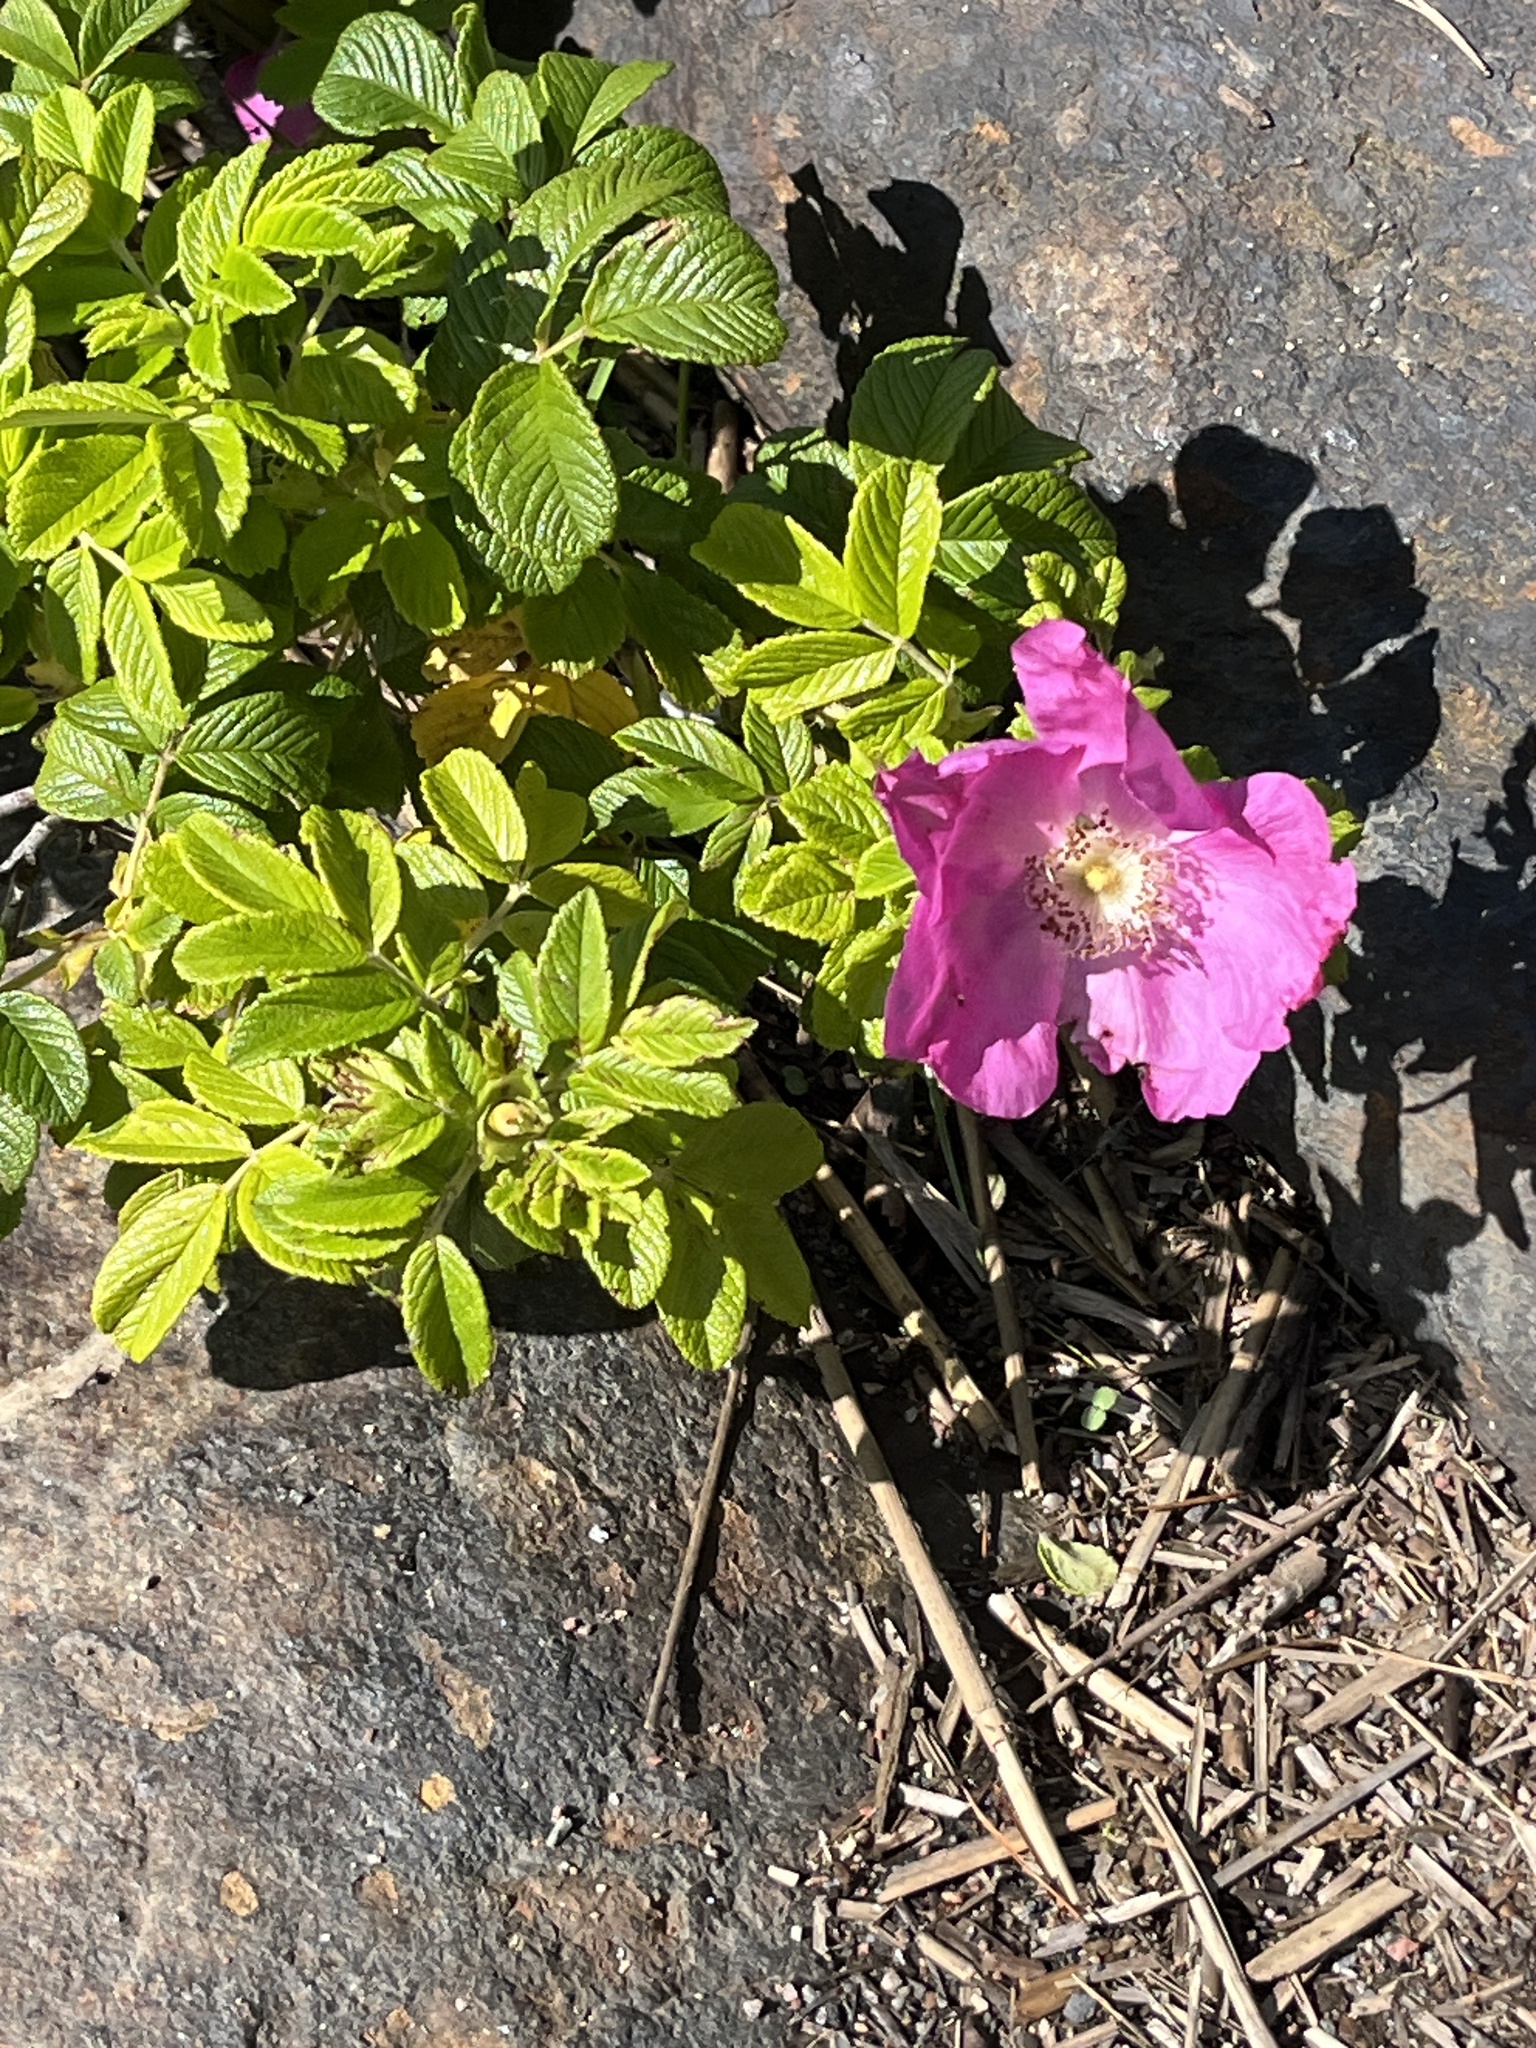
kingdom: Plantae
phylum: Tracheophyta
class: Magnoliopsida
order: Rosales
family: Rosaceae
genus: Rosa
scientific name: Rosa rugosa
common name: Japanese rose
